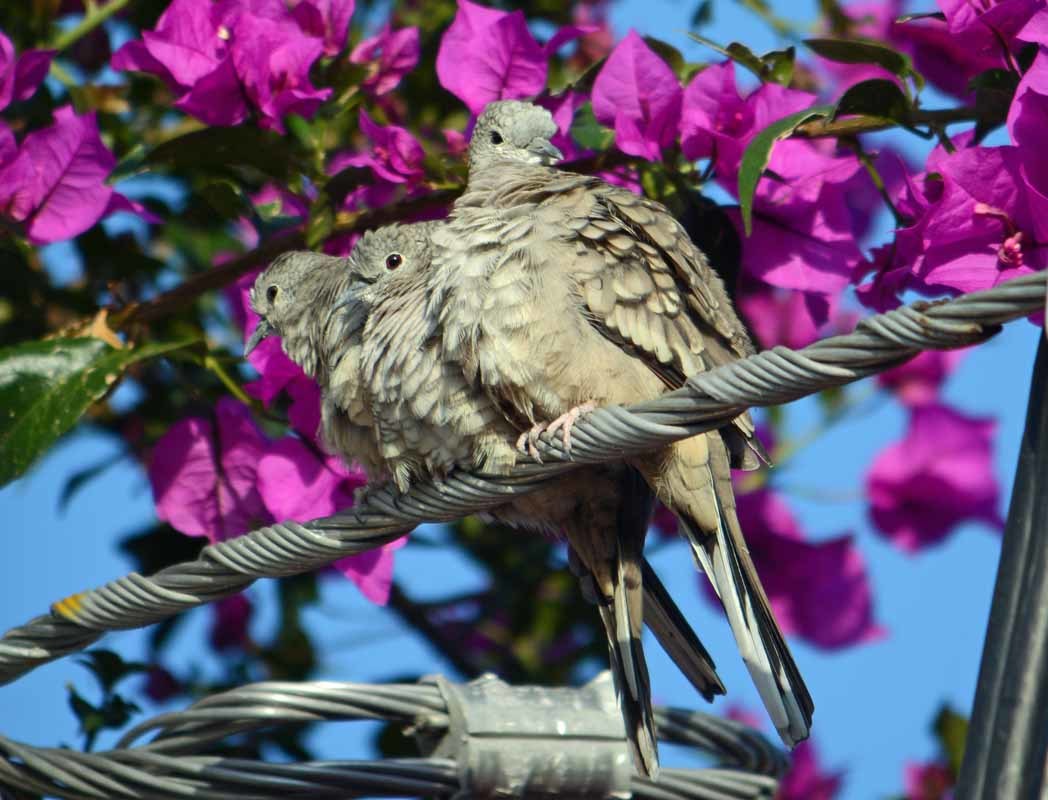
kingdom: Animalia
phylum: Chordata
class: Aves
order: Columbiformes
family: Columbidae
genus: Columbina
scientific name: Columbina inca
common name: Inca dove
